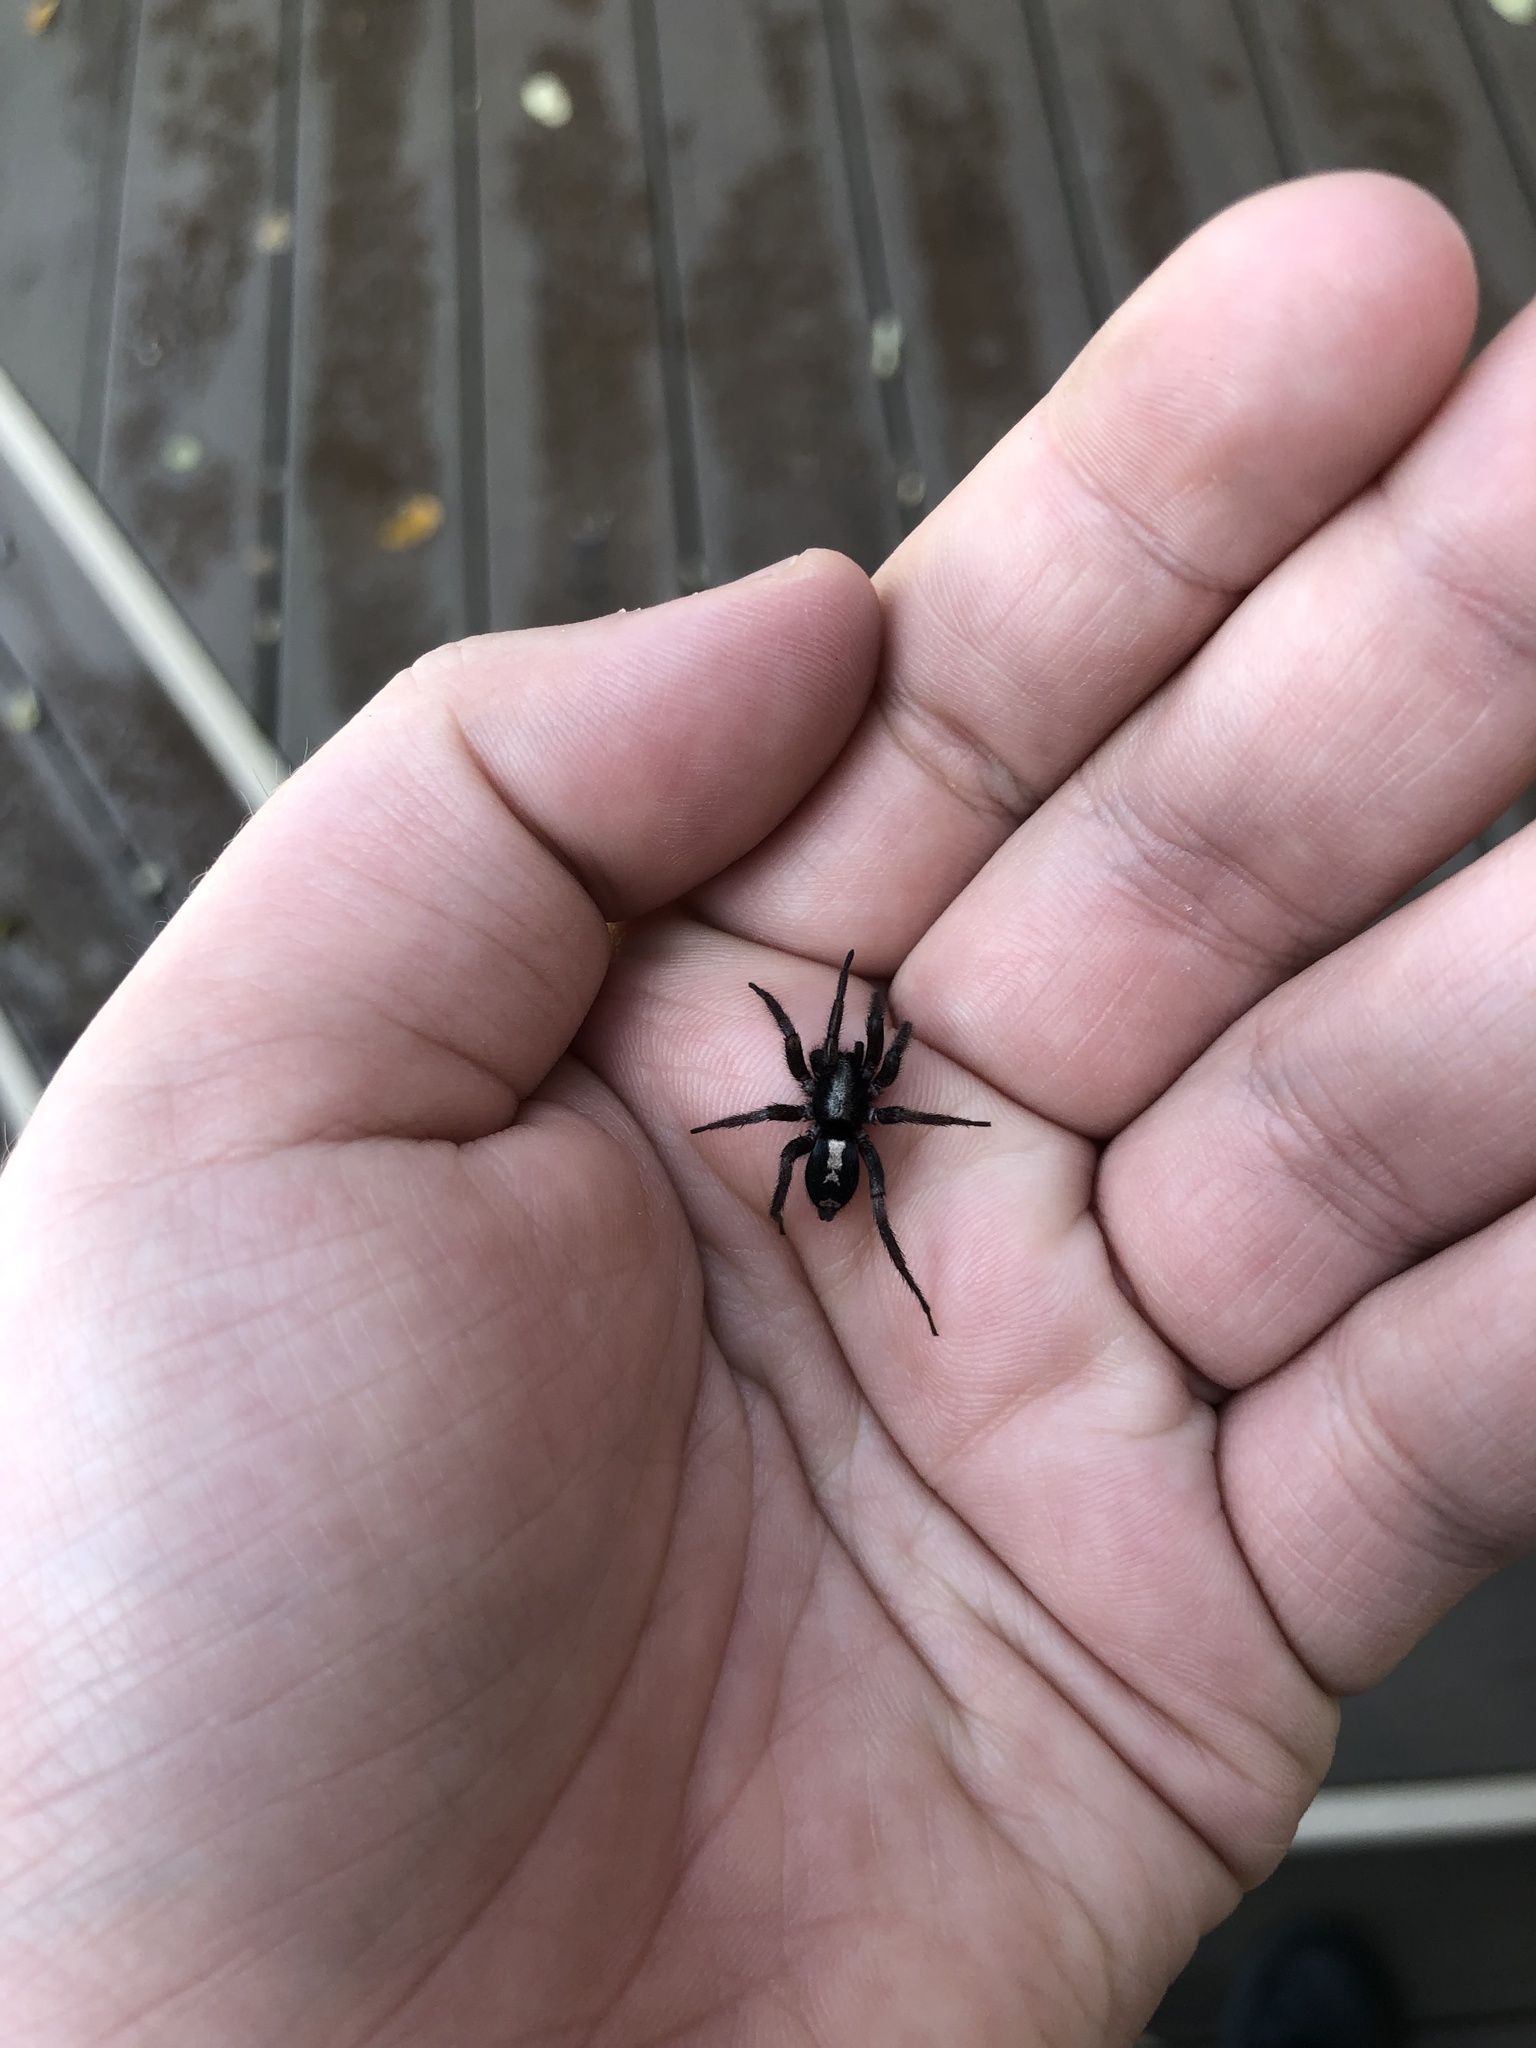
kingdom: Animalia
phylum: Arthropoda
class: Arachnida
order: Araneae
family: Gnaphosidae
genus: Herpyllus
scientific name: Herpyllus ecclesiasticus
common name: Eastern parson spider
